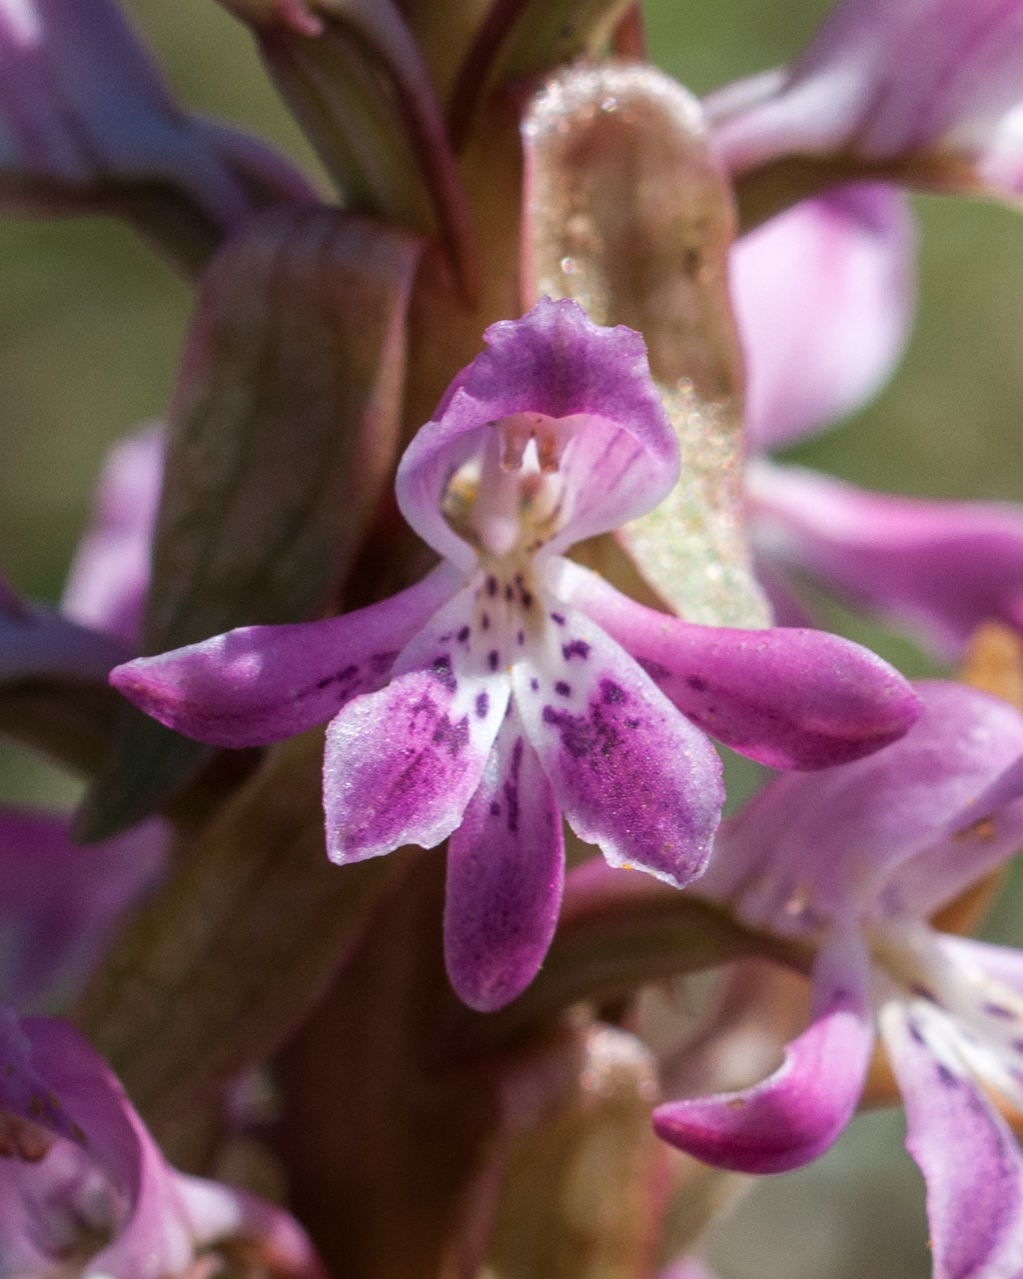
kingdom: Plantae
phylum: Tracheophyta
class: Liliopsida
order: Asparagales
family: Orchidaceae
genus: Satyrium
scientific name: Satyrium erectum
